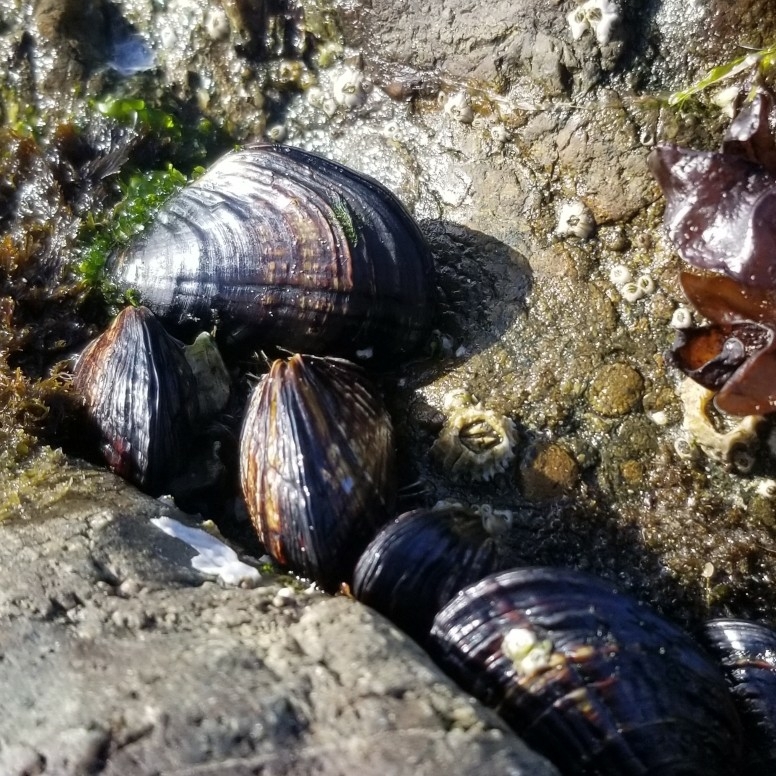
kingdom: Animalia
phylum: Mollusca
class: Bivalvia
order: Mytilida
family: Mytilidae
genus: Mytilus
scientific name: Mytilus californianus
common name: California mussel
